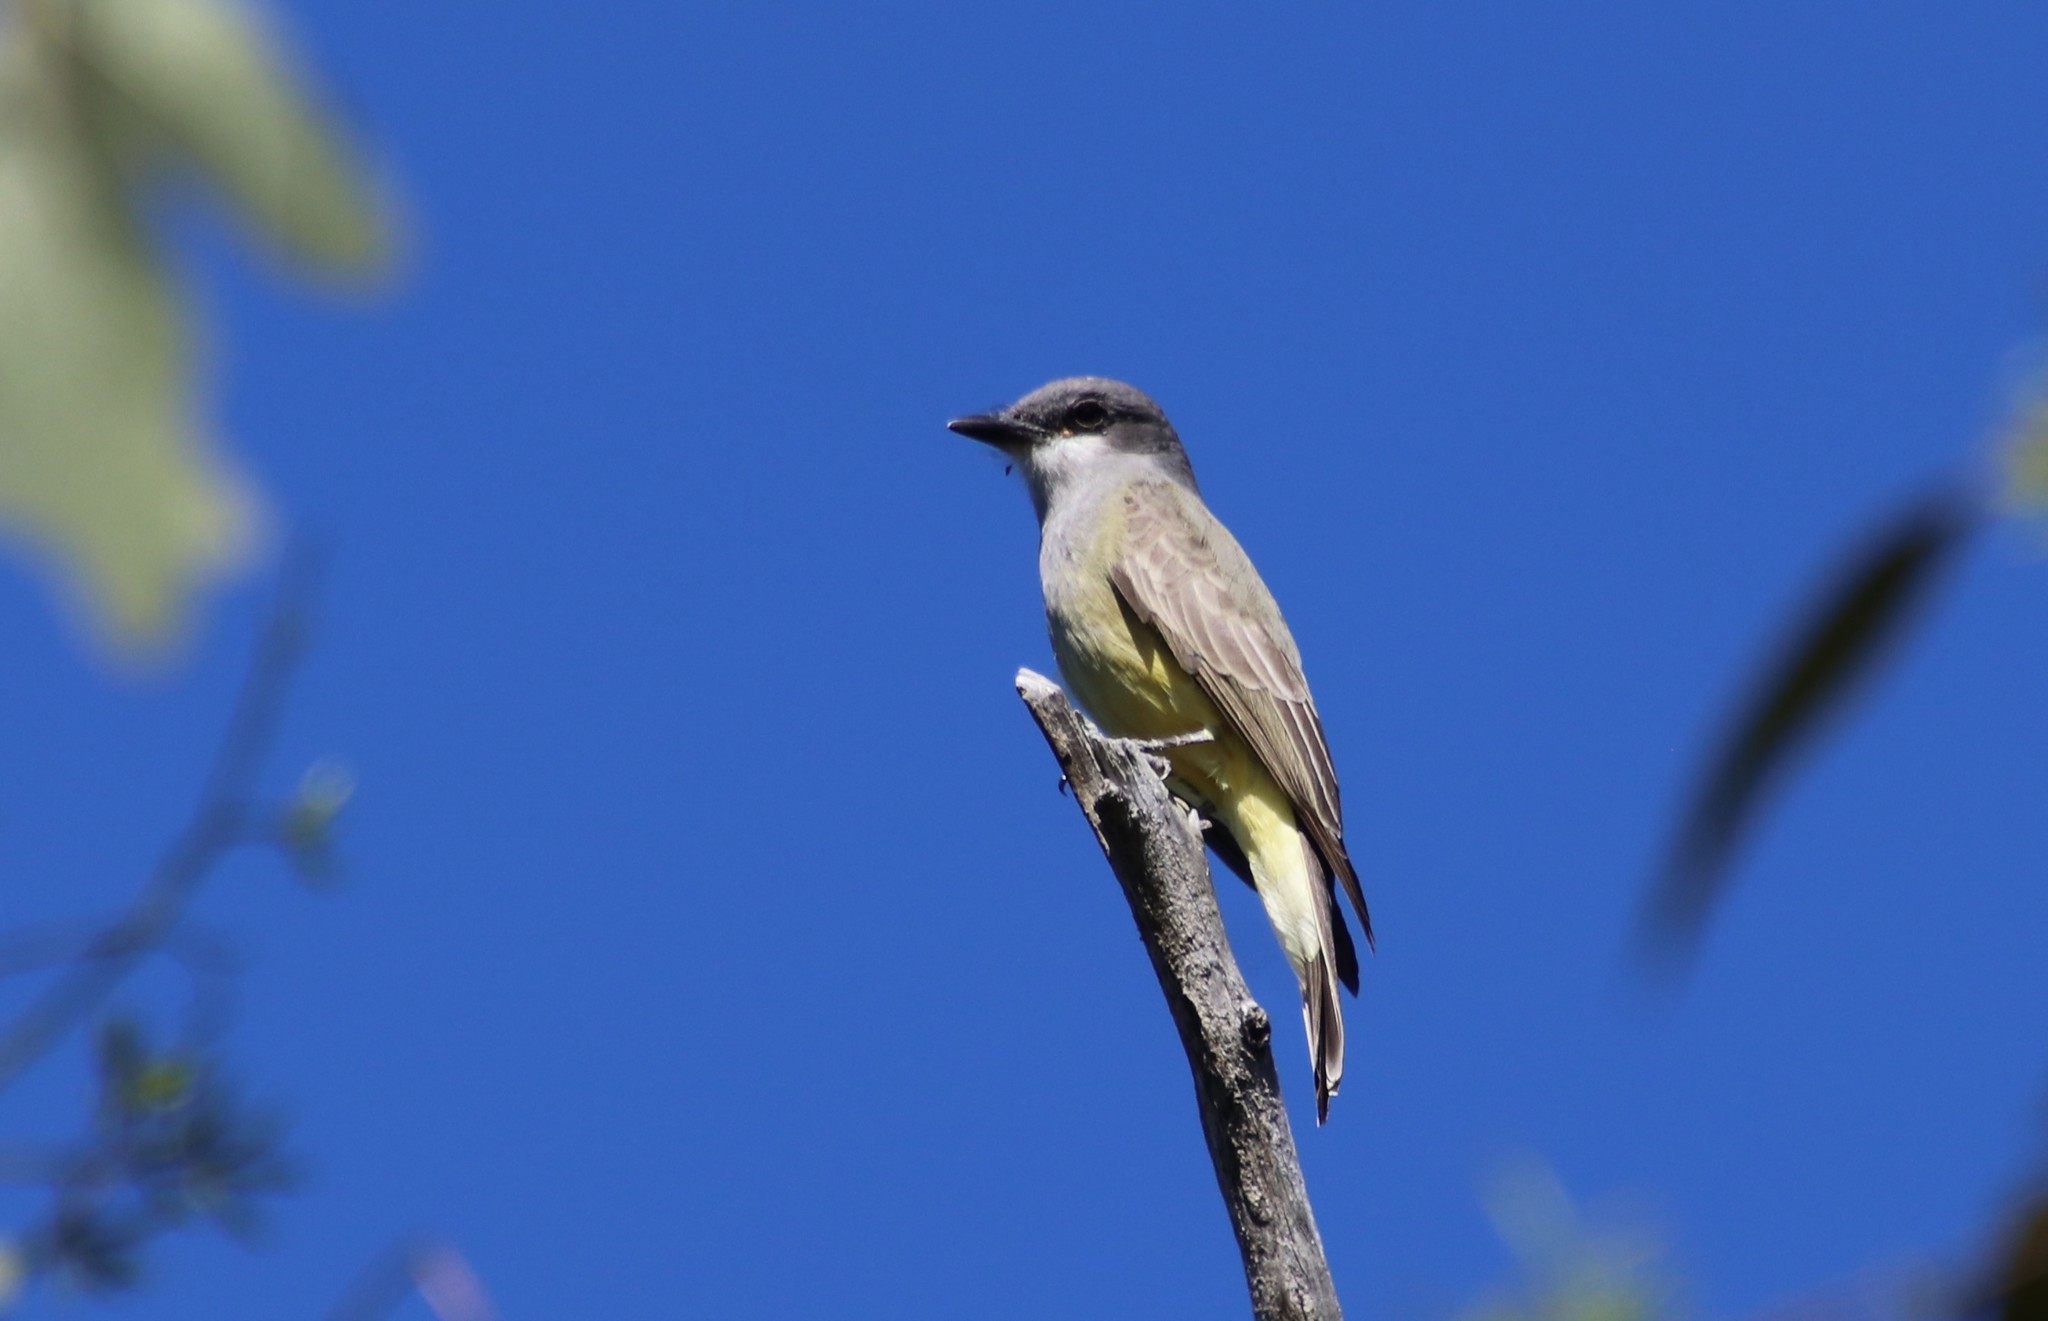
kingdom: Animalia
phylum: Chordata
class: Aves
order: Passeriformes
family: Tyrannidae
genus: Tyrannus
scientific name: Tyrannus vociferans
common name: Cassin's kingbird
